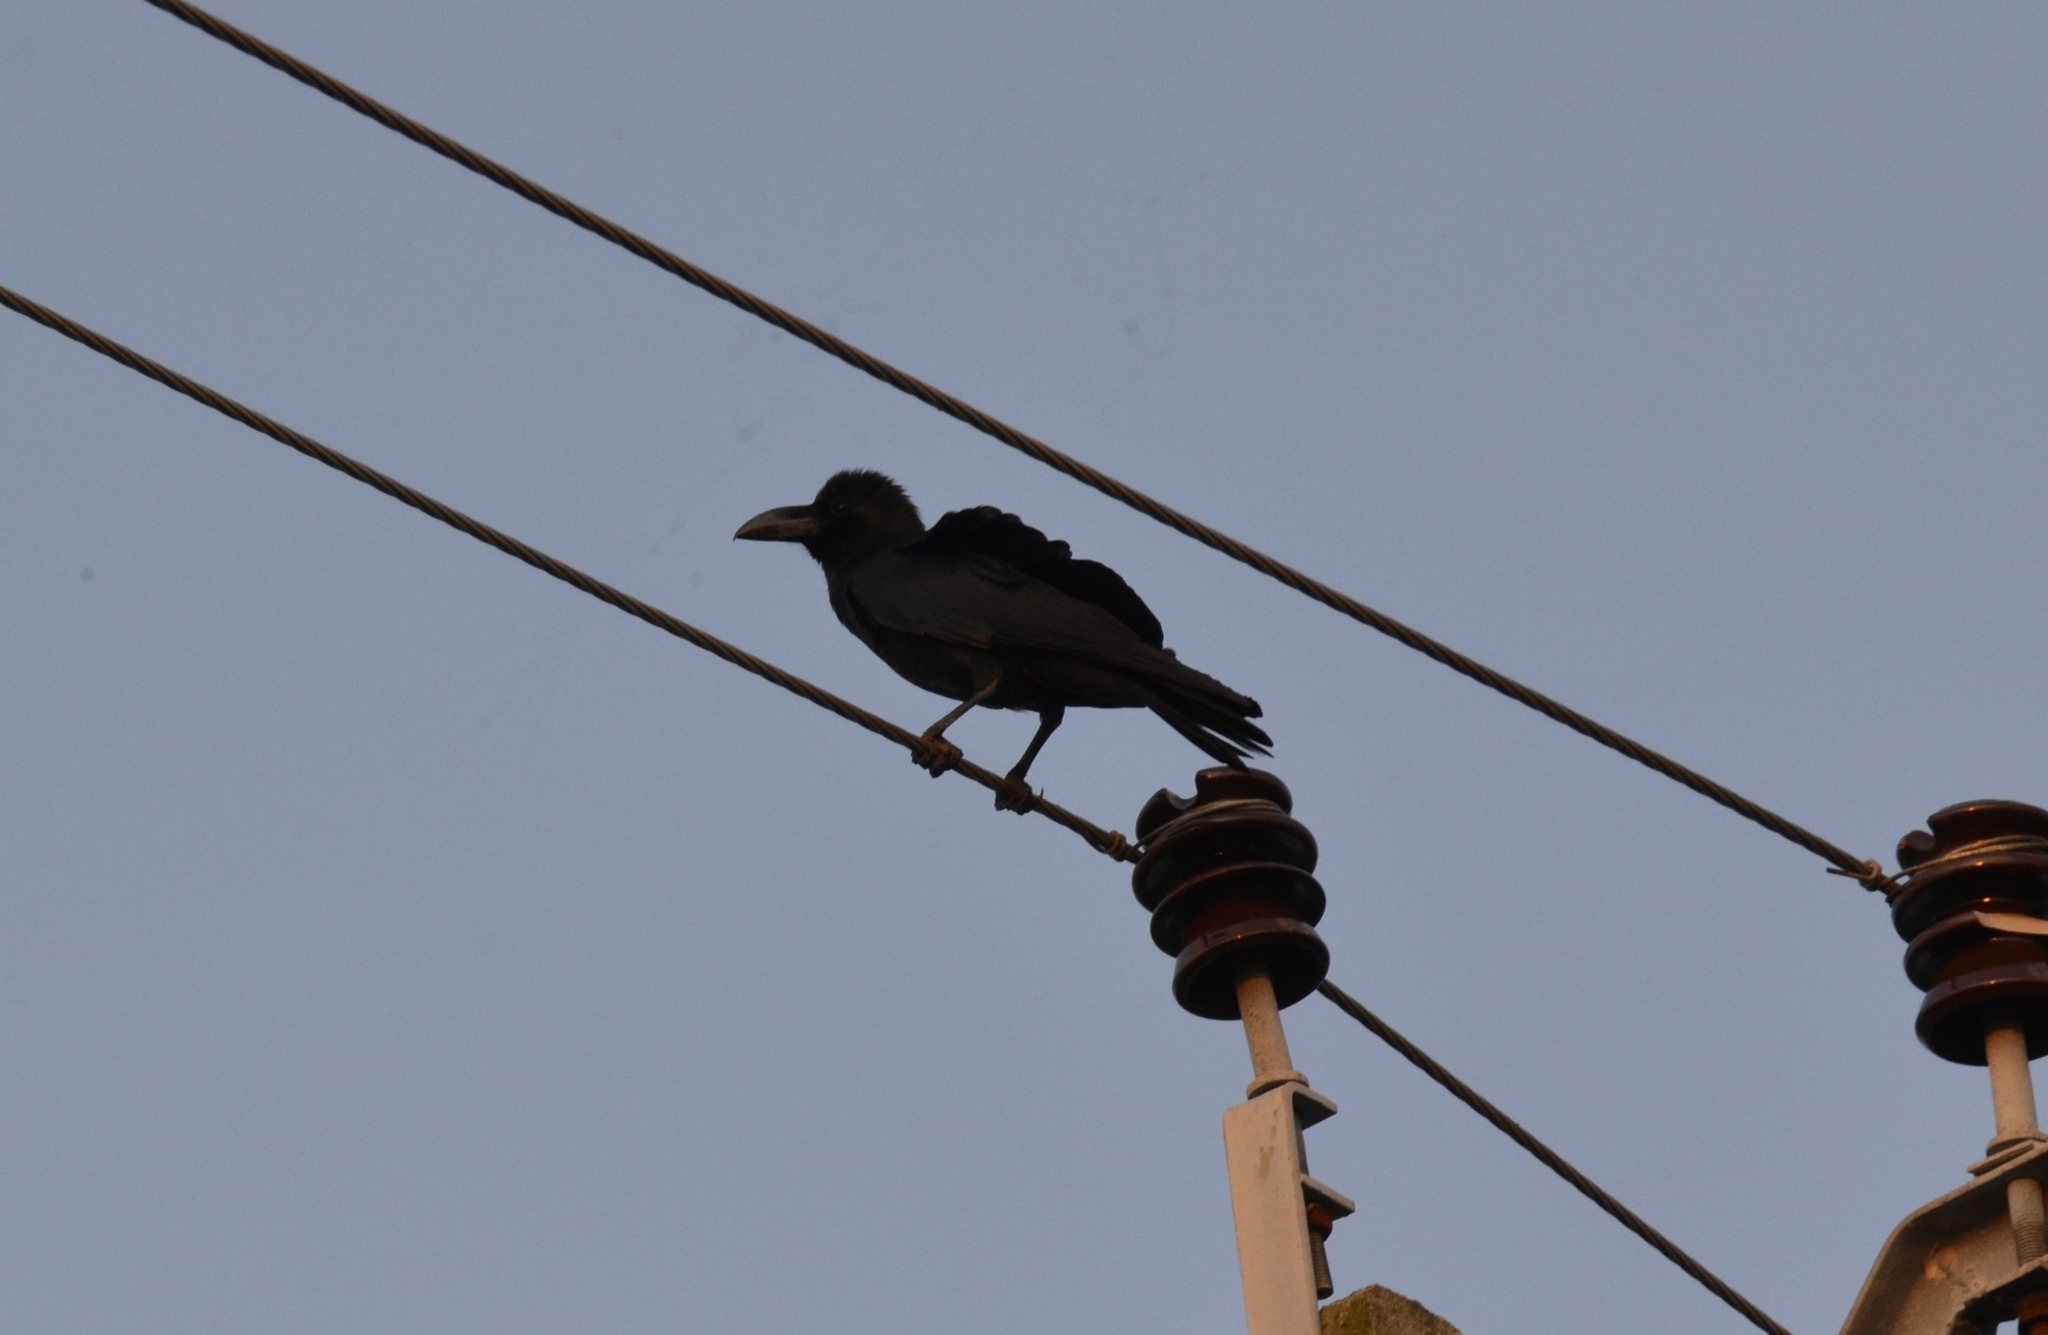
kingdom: Animalia
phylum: Chordata
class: Aves
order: Passeriformes
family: Corvidae
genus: Corvus
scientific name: Corvus macrorhynchos
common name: Large-billed crow
